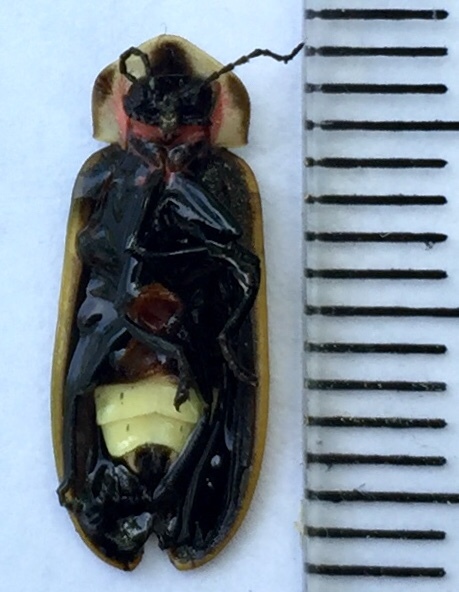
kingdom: Animalia
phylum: Arthropoda
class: Insecta
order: Coleoptera
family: Lampyridae
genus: Pyractomena
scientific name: Pyractomena borealis
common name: Northern firefly
